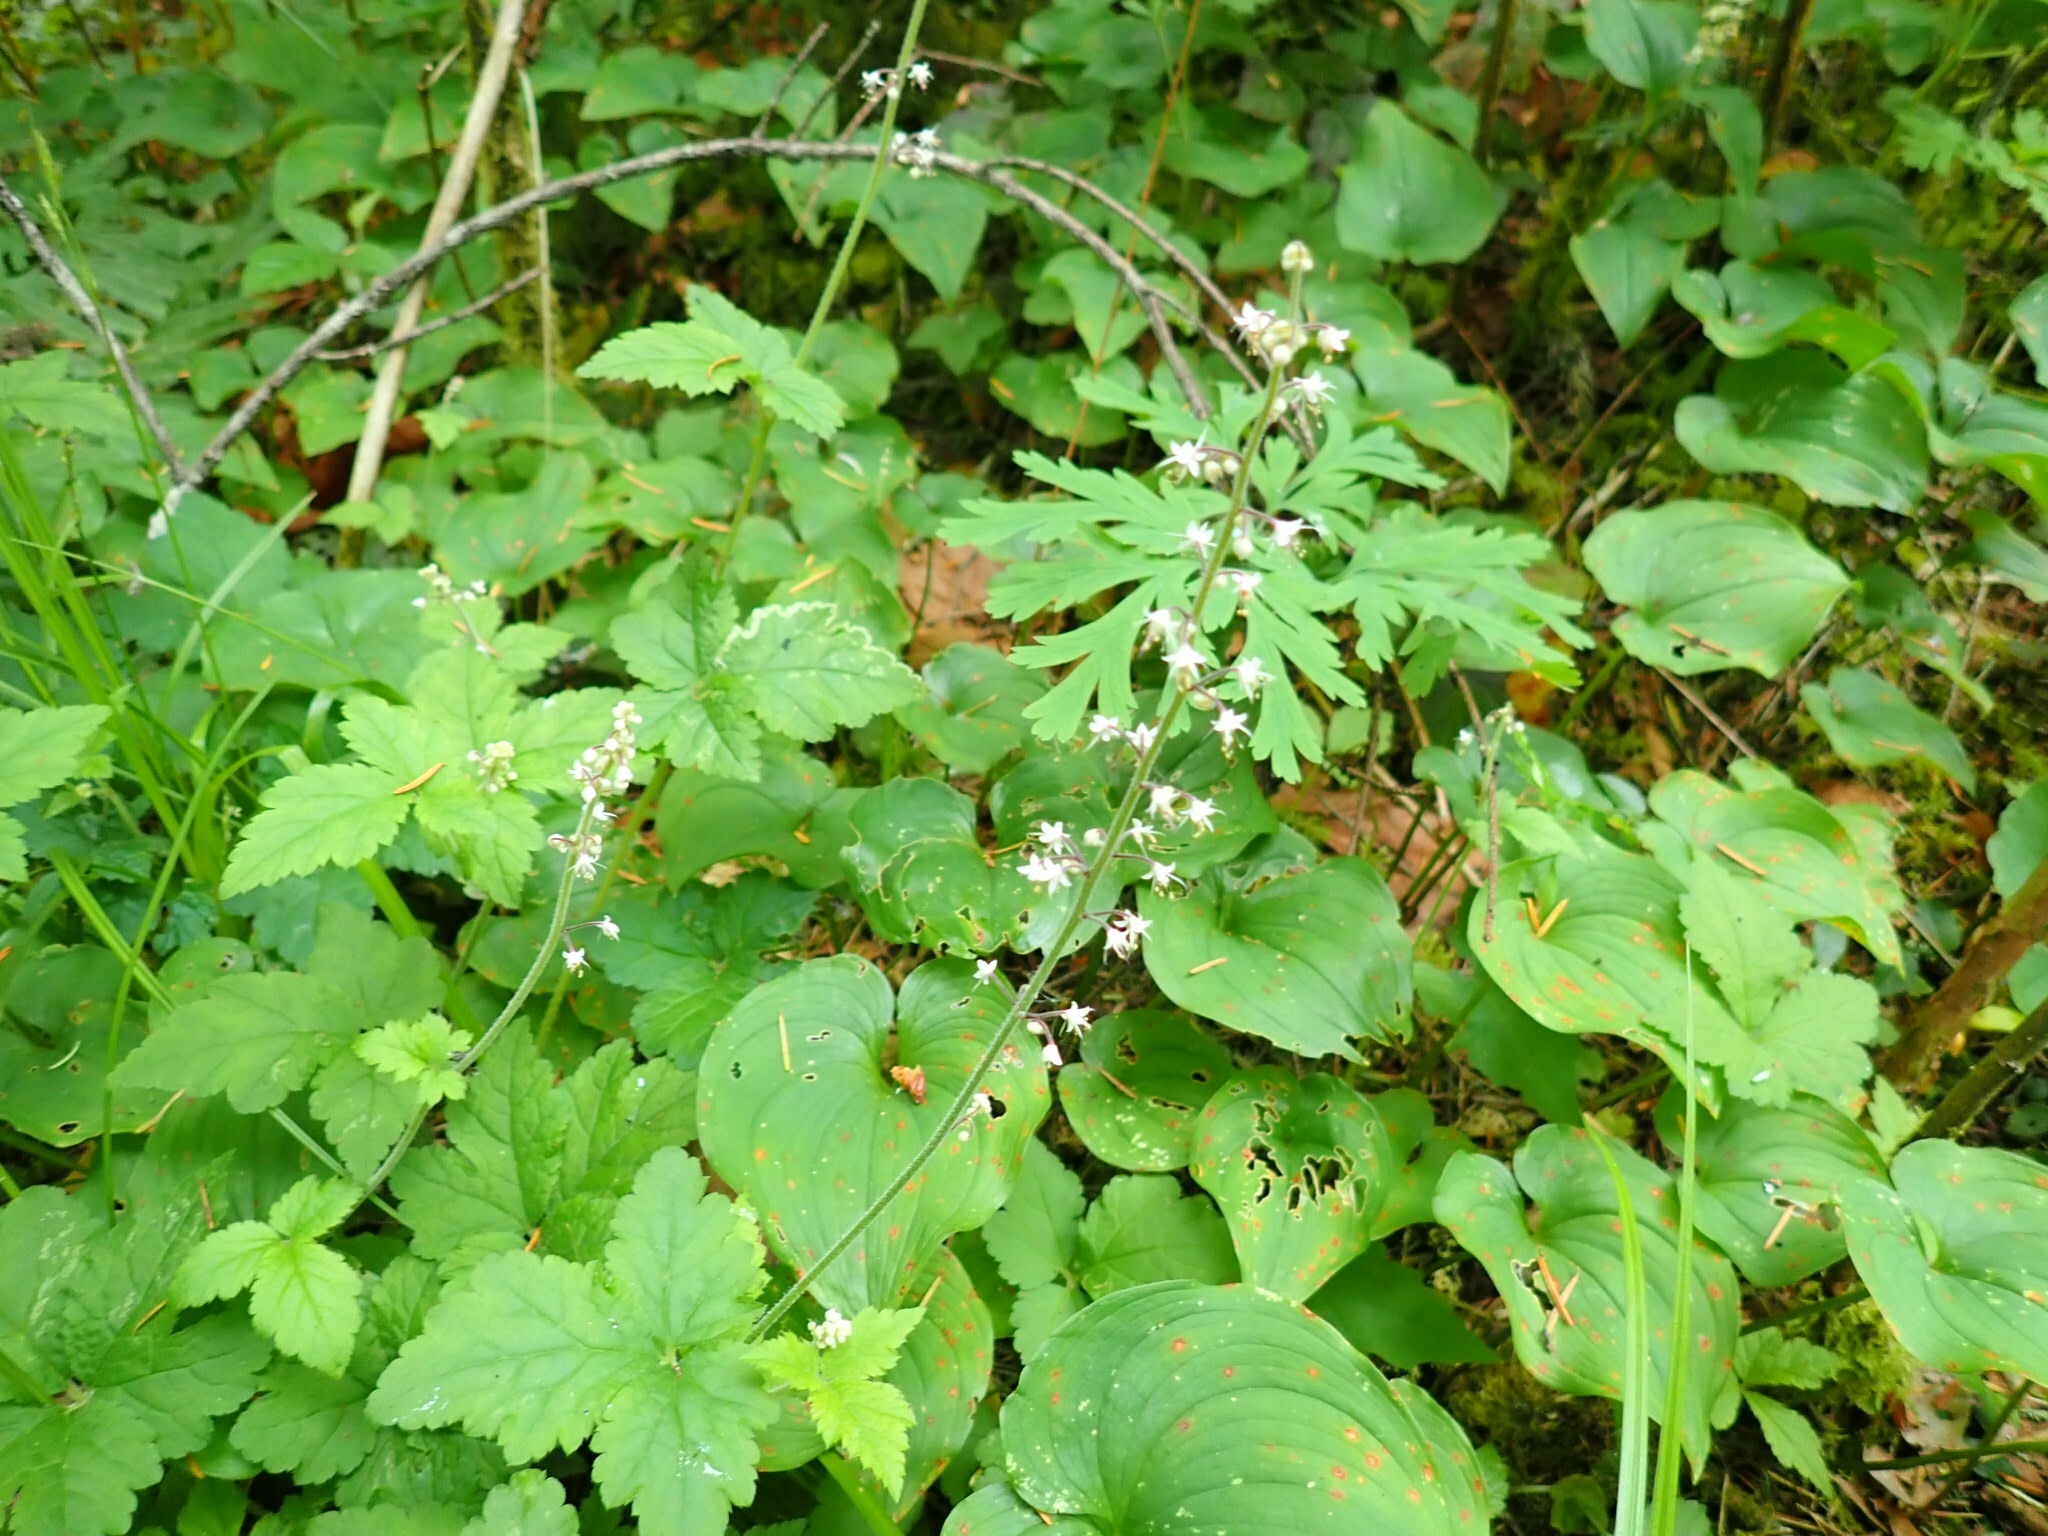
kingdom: Plantae
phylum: Tracheophyta
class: Magnoliopsida
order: Saxifragales
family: Saxifragaceae
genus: Tiarella
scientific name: Tiarella trifoliata
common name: Sugar-scoop
